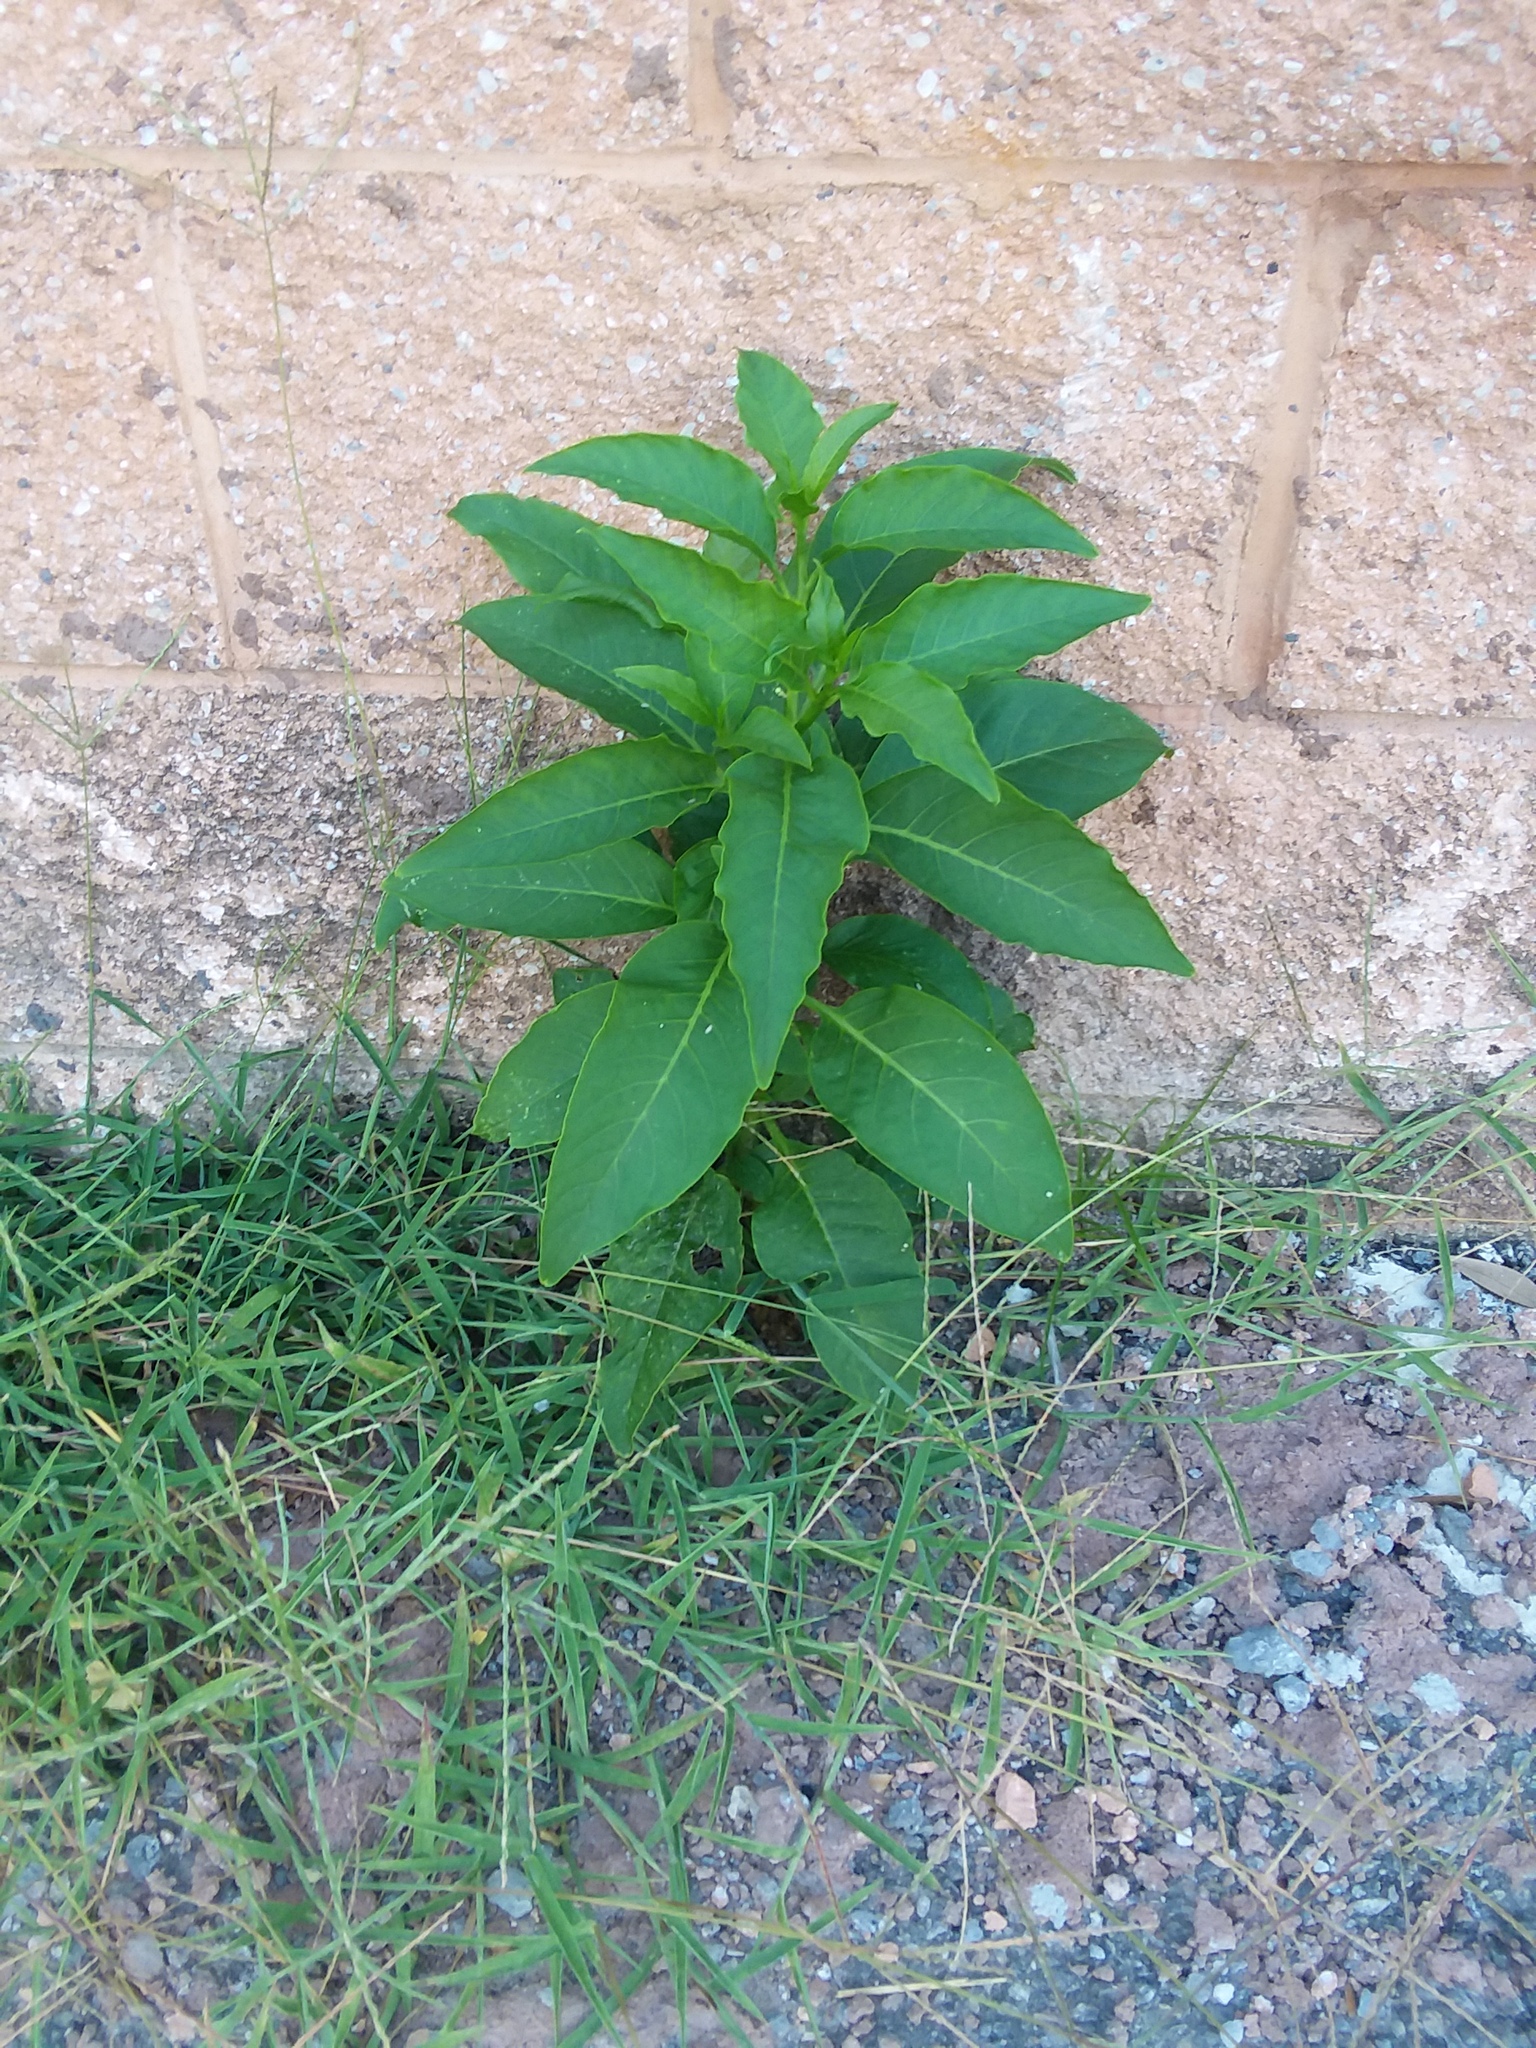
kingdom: Plantae
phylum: Tracheophyta
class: Magnoliopsida
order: Caryophyllales
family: Phytolaccaceae
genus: Phytolacca
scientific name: Phytolacca americana
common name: American pokeweed
